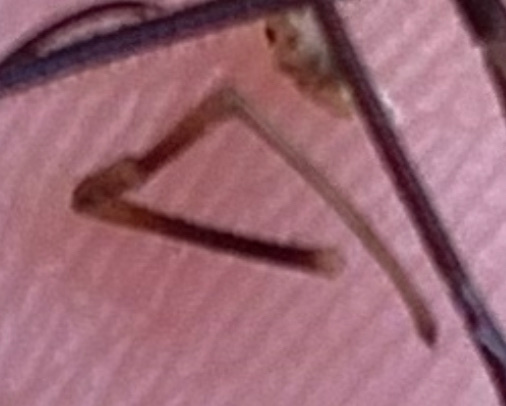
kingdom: Animalia
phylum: Arthropoda
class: Arachnida
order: Opiliones
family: Phalangiidae
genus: Phalangium
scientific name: Phalangium opilio
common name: Daddy longleg
